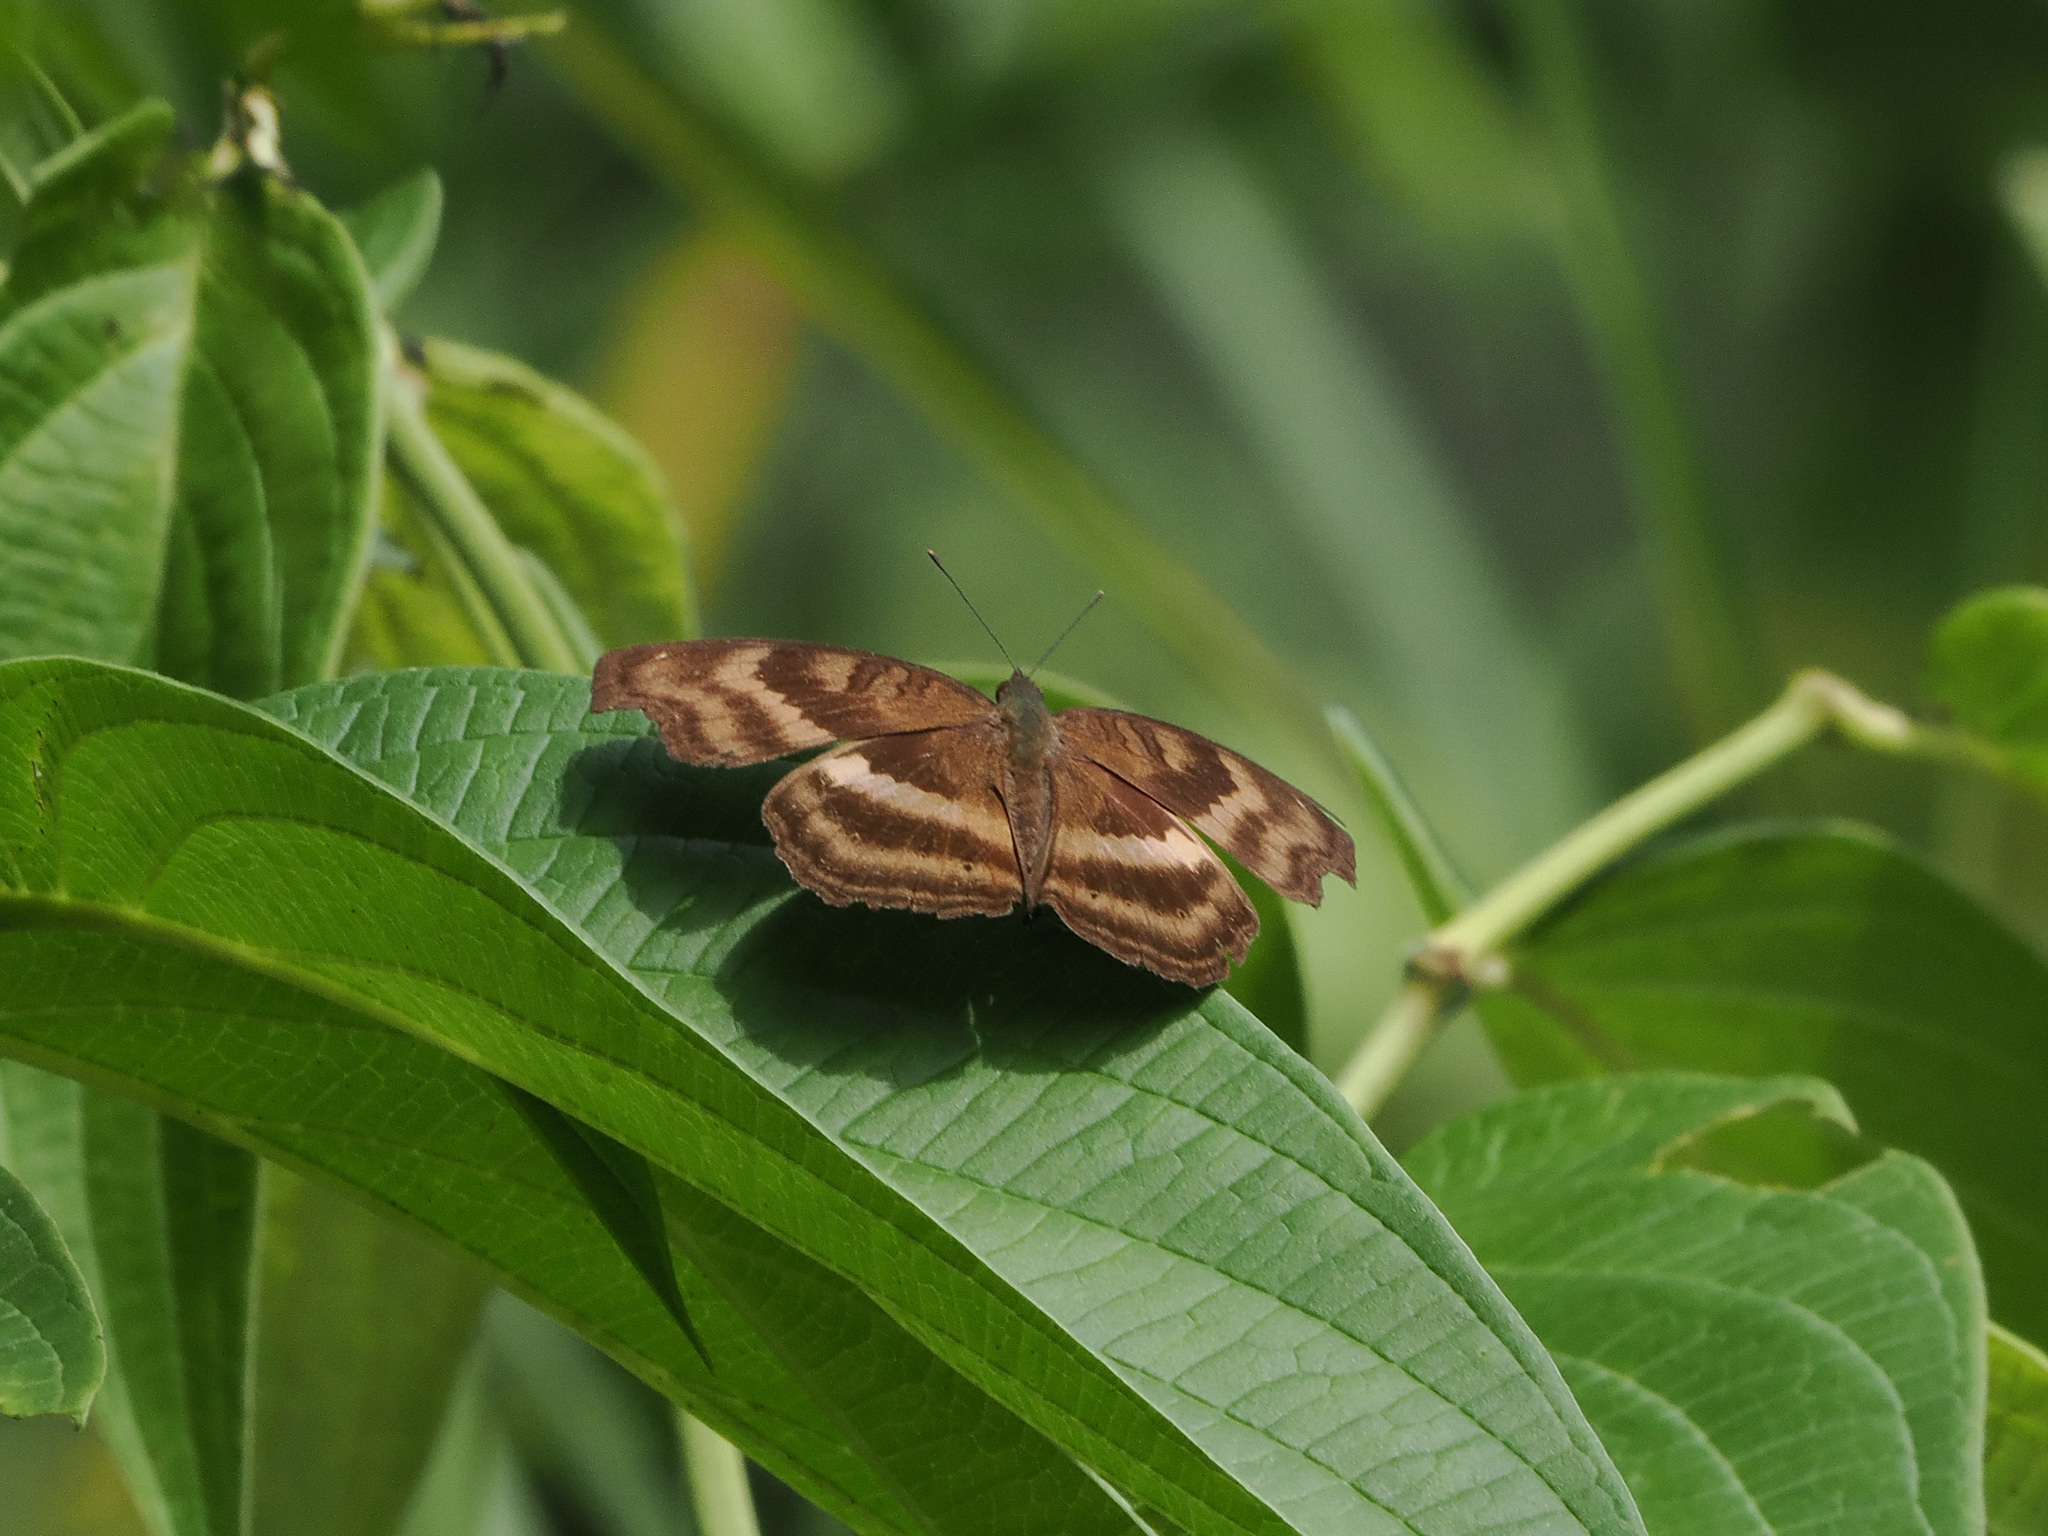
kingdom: Animalia
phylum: Arthropoda
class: Insecta
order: Lepidoptera
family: Nymphalidae
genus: Junonia
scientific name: Junonia iphita
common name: Chocolate pansy
